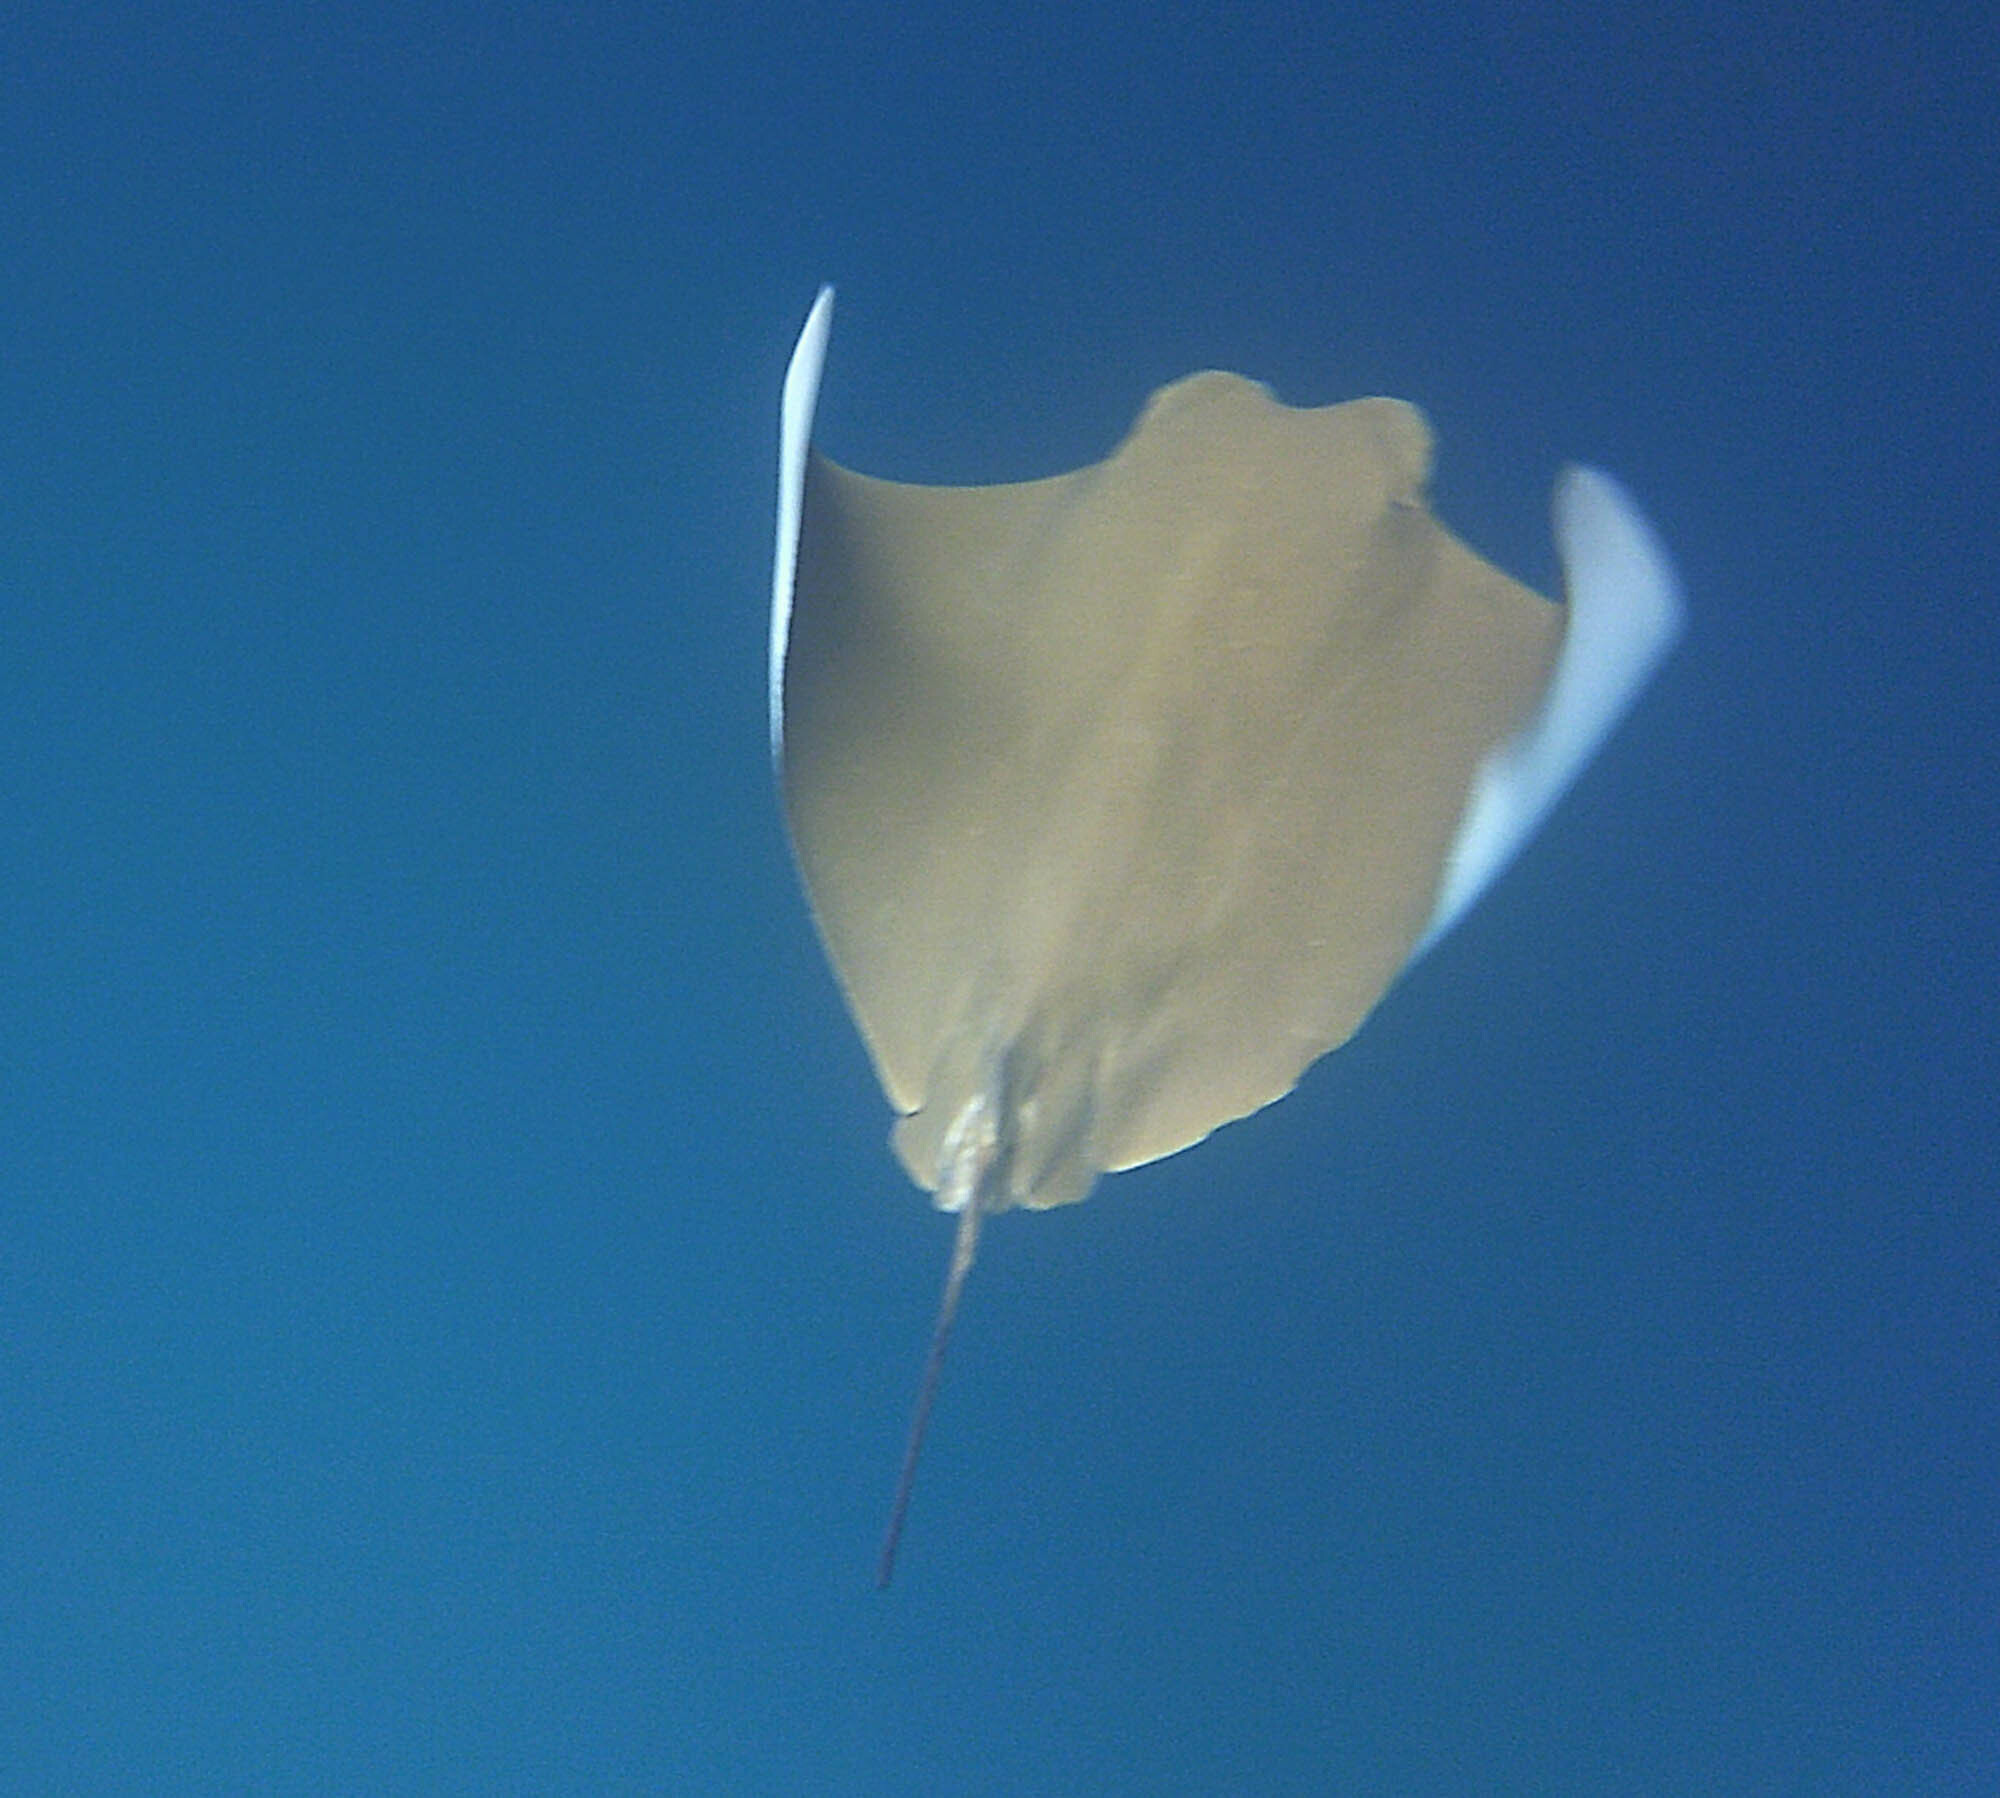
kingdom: Animalia
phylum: Chordata
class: Elasmobranchii
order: Myliobatiformes
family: Myliobatidae
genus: Rhinoptera
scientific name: Rhinoptera steindachneri
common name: Golden cownose ray
